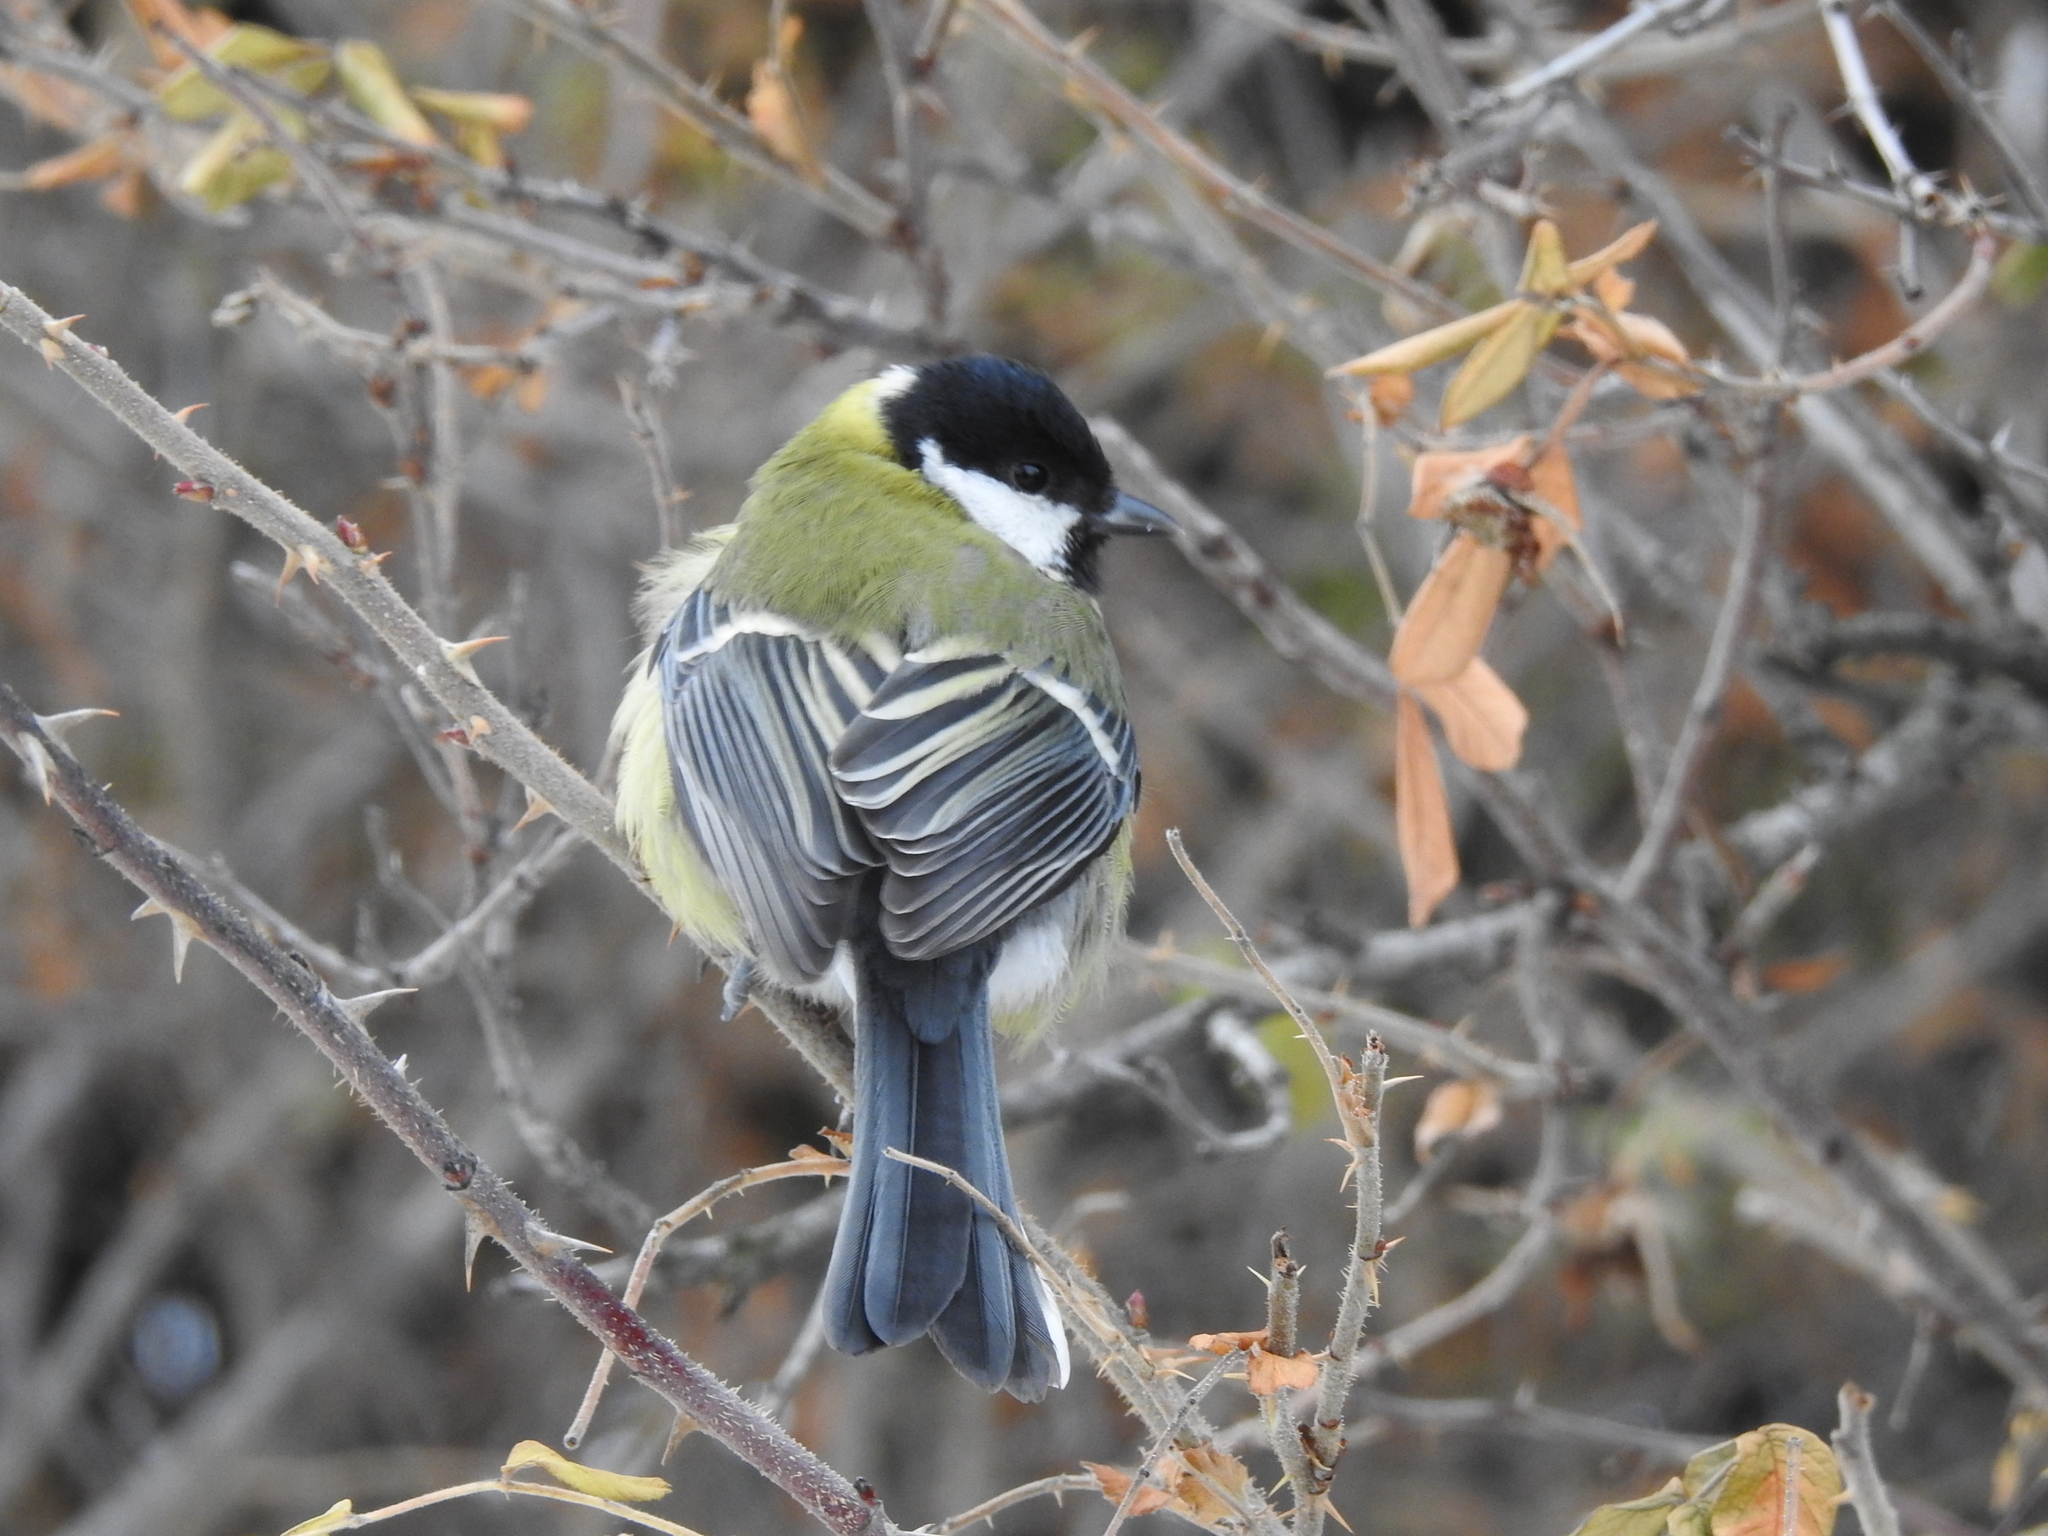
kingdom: Animalia
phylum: Chordata
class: Aves
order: Passeriformes
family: Paridae
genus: Parus
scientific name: Parus major
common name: Great tit
